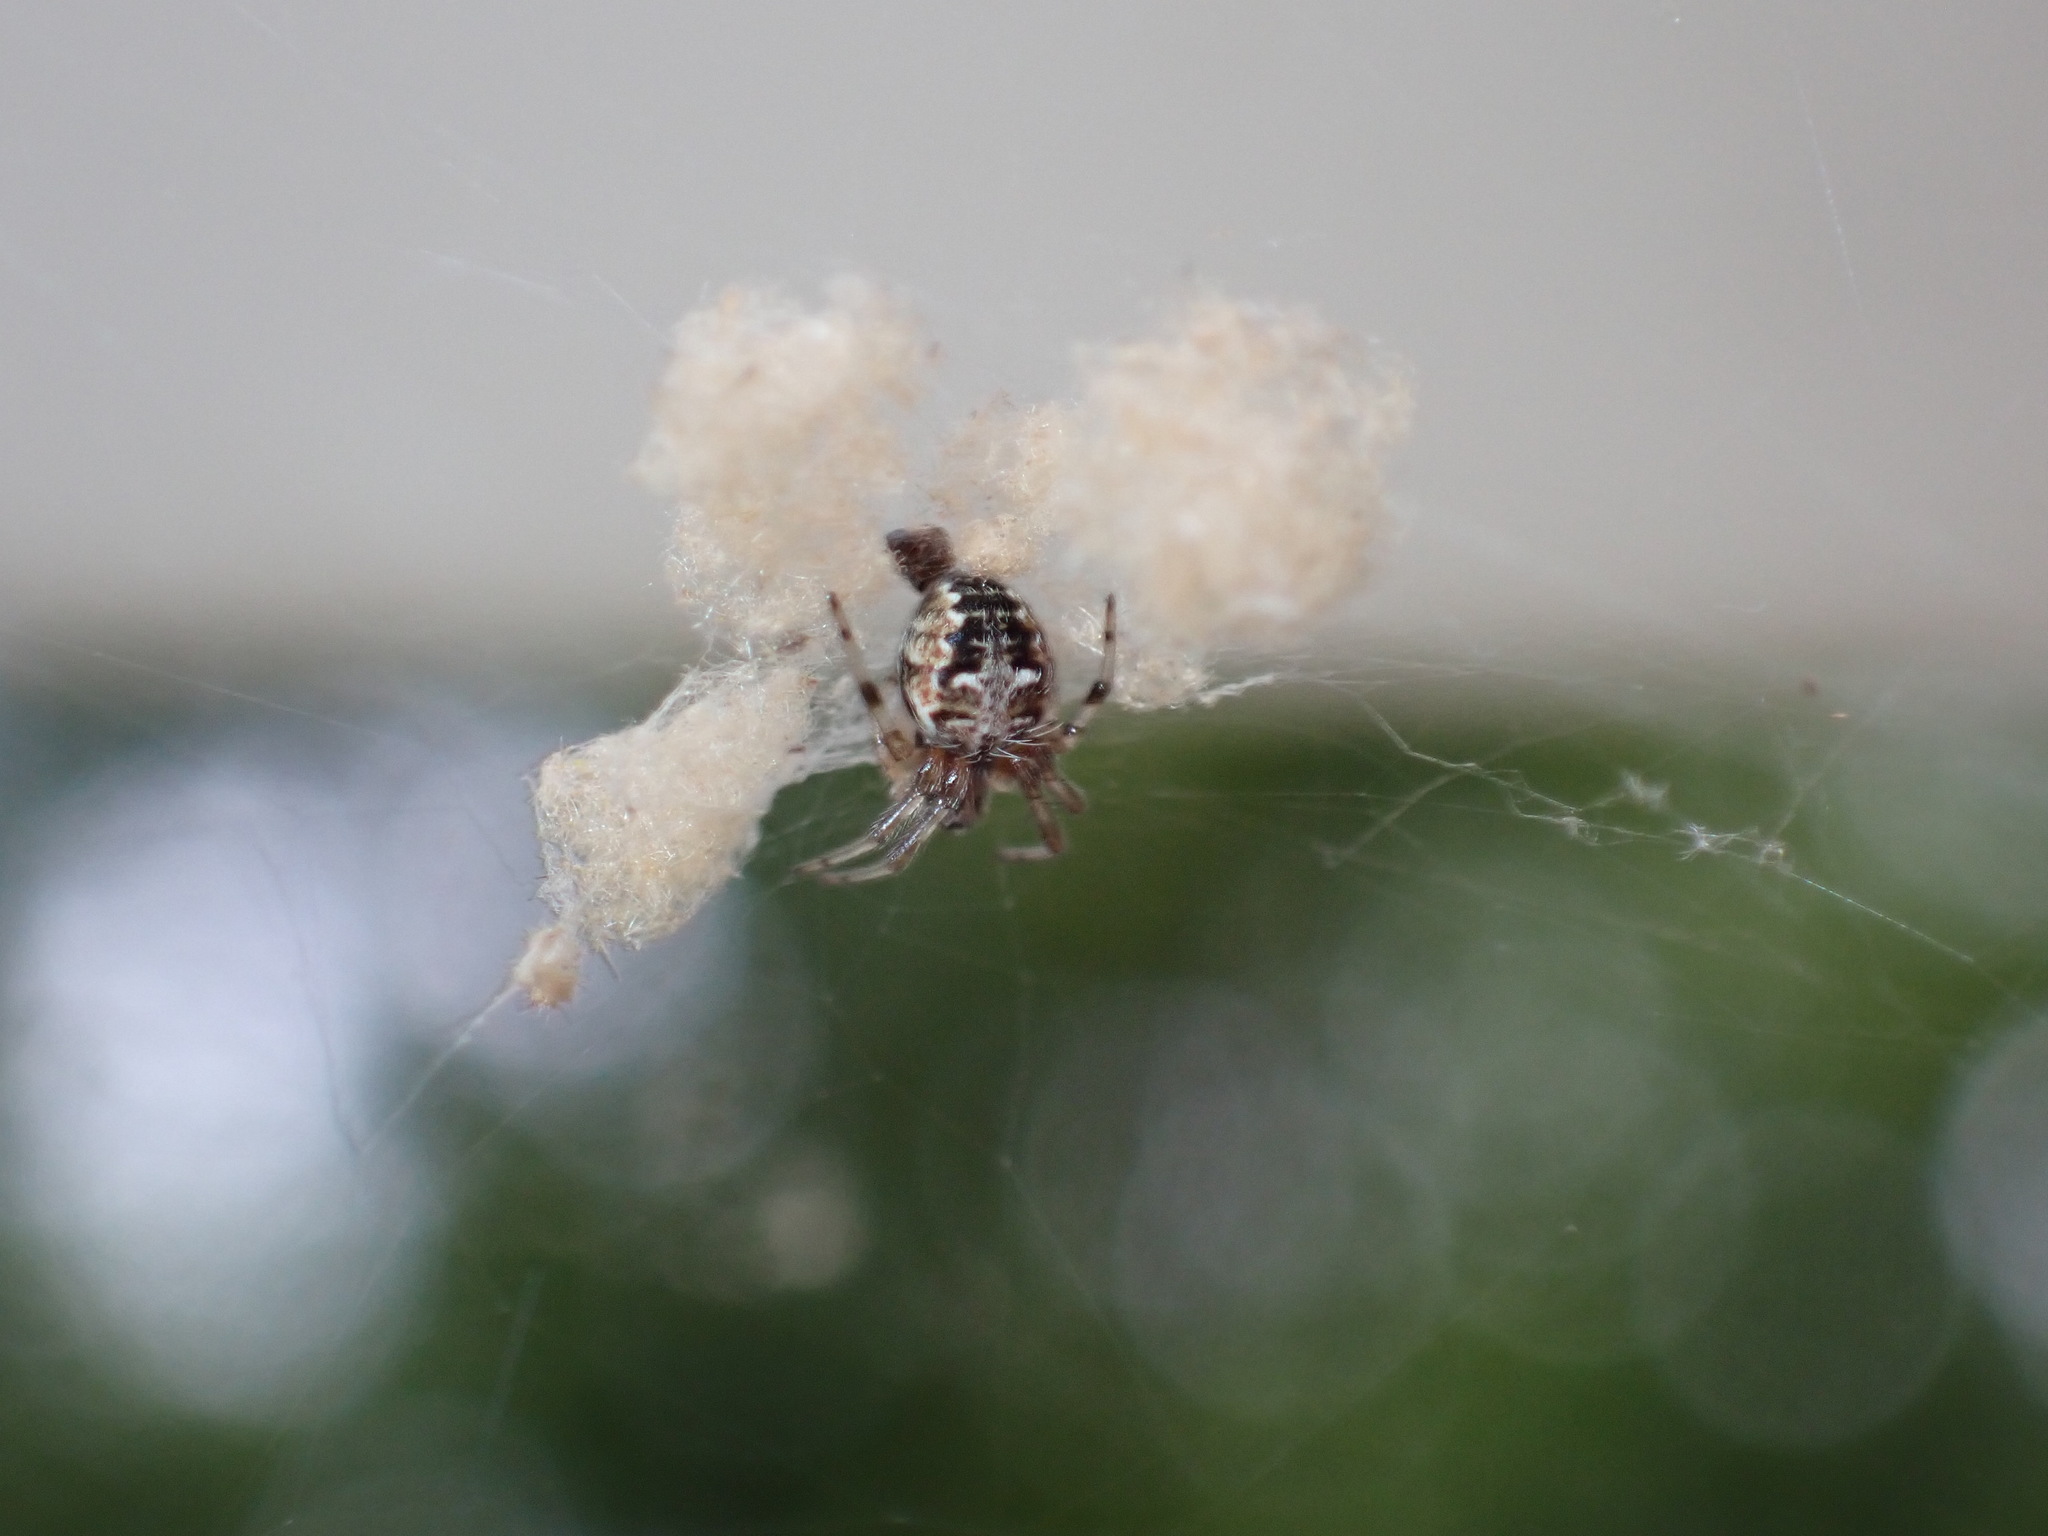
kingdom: Animalia
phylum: Arthropoda
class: Arachnida
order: Araneae
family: Araneidae
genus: Metepeira
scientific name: Metepeira labyrinthea
